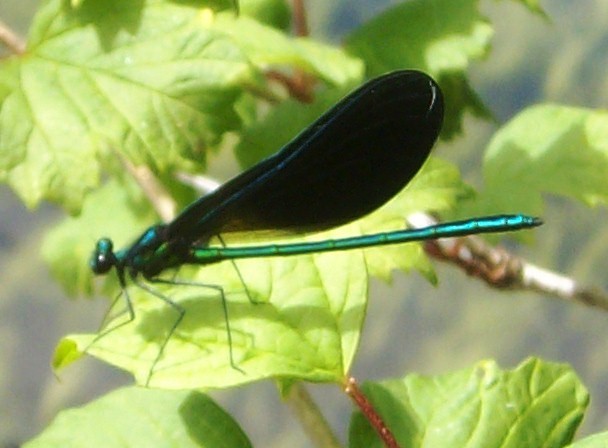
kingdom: Animalia
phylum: Arthropoda
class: Insecta
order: Odonata
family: Calopterygidae
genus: Calopteryx
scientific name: Calopteryx maculata
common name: Ebony jewelwing
